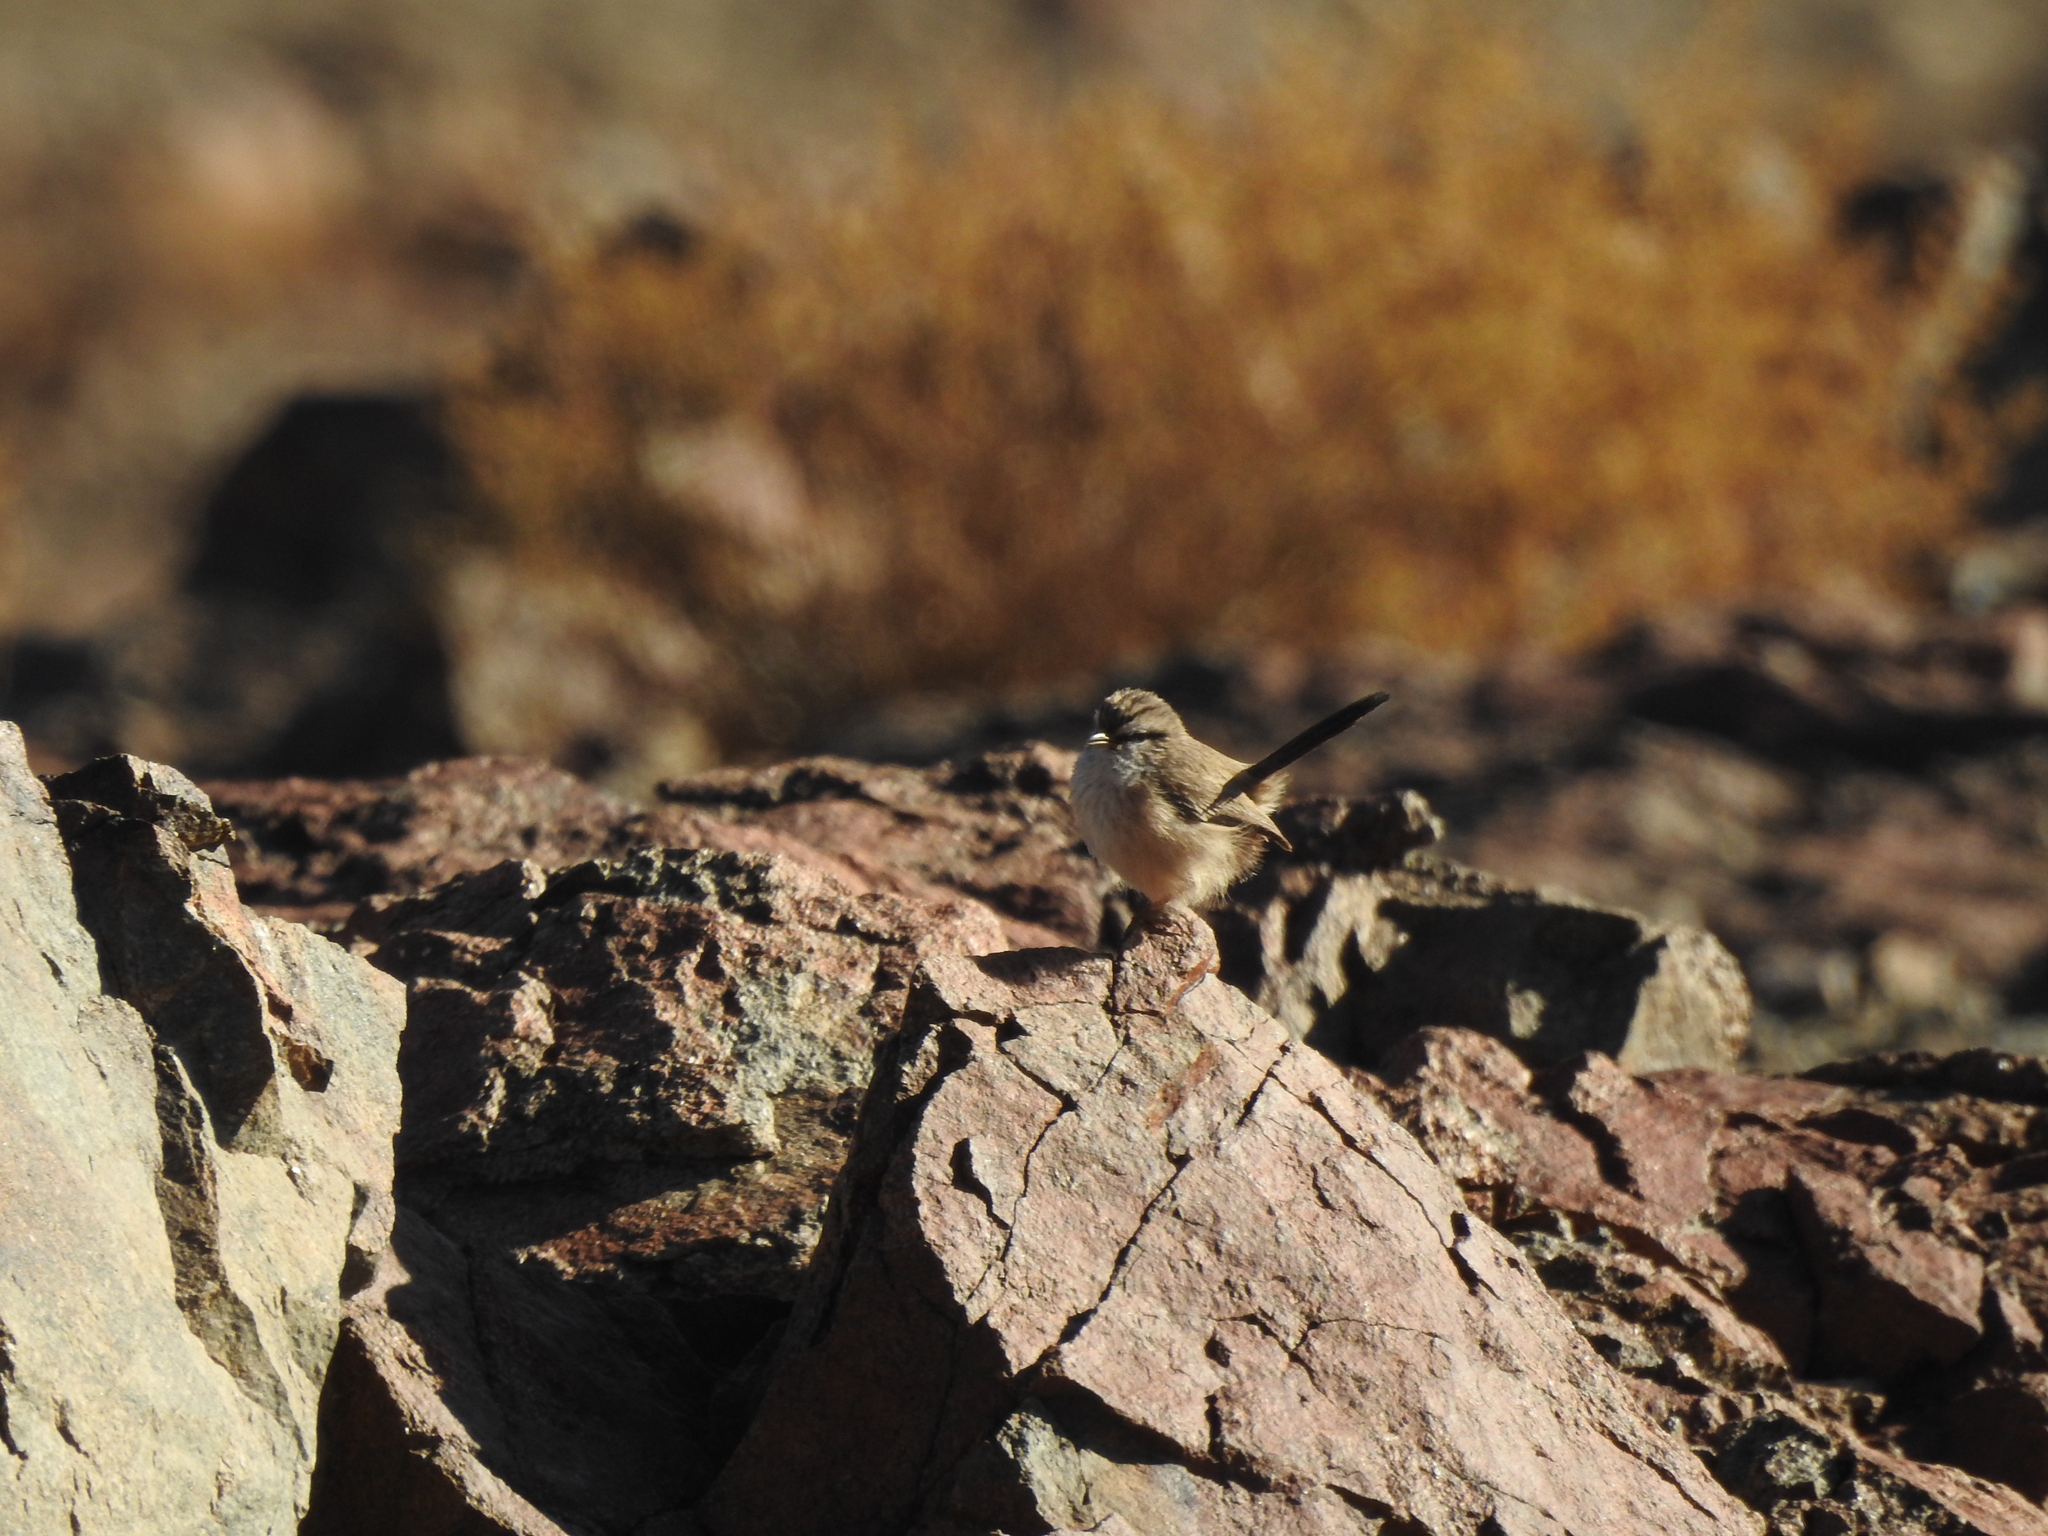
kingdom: Animalia
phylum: Chordata
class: Aves
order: Passeriformes
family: Scotocercidae
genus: Scotocerca
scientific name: Scotocerca inquieta
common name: Scrub warbler
